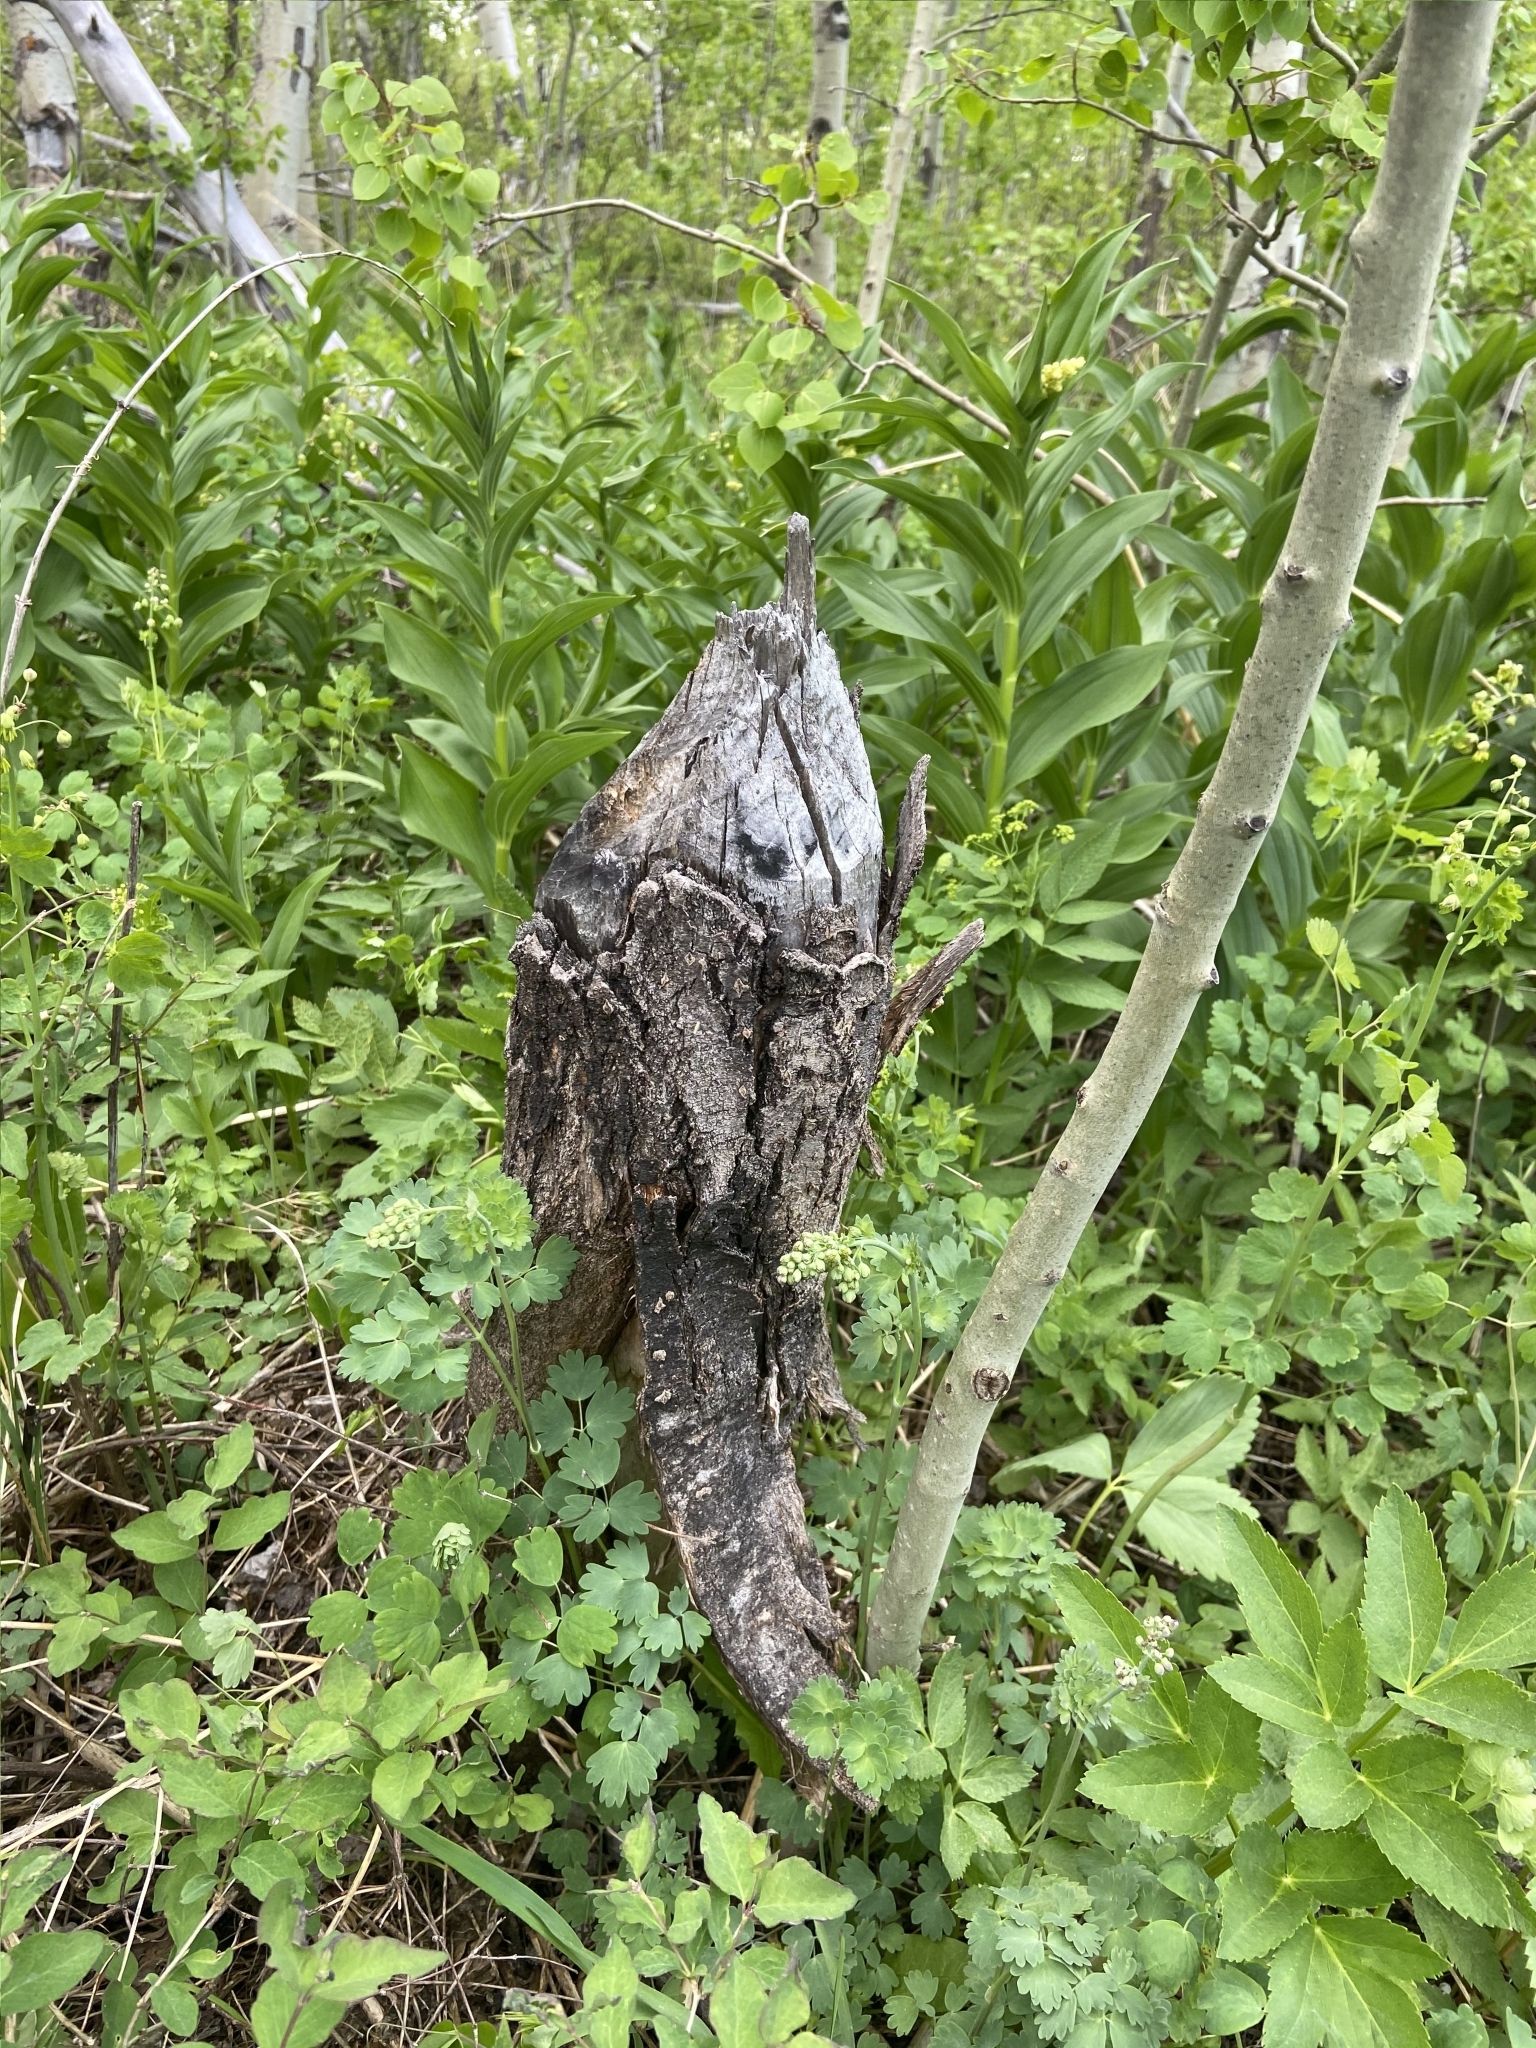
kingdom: Animalia
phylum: Chordata
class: Mammalia
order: Rodentia
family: Castoridae
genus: Castor
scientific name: Castor canadensis
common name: American beaver
